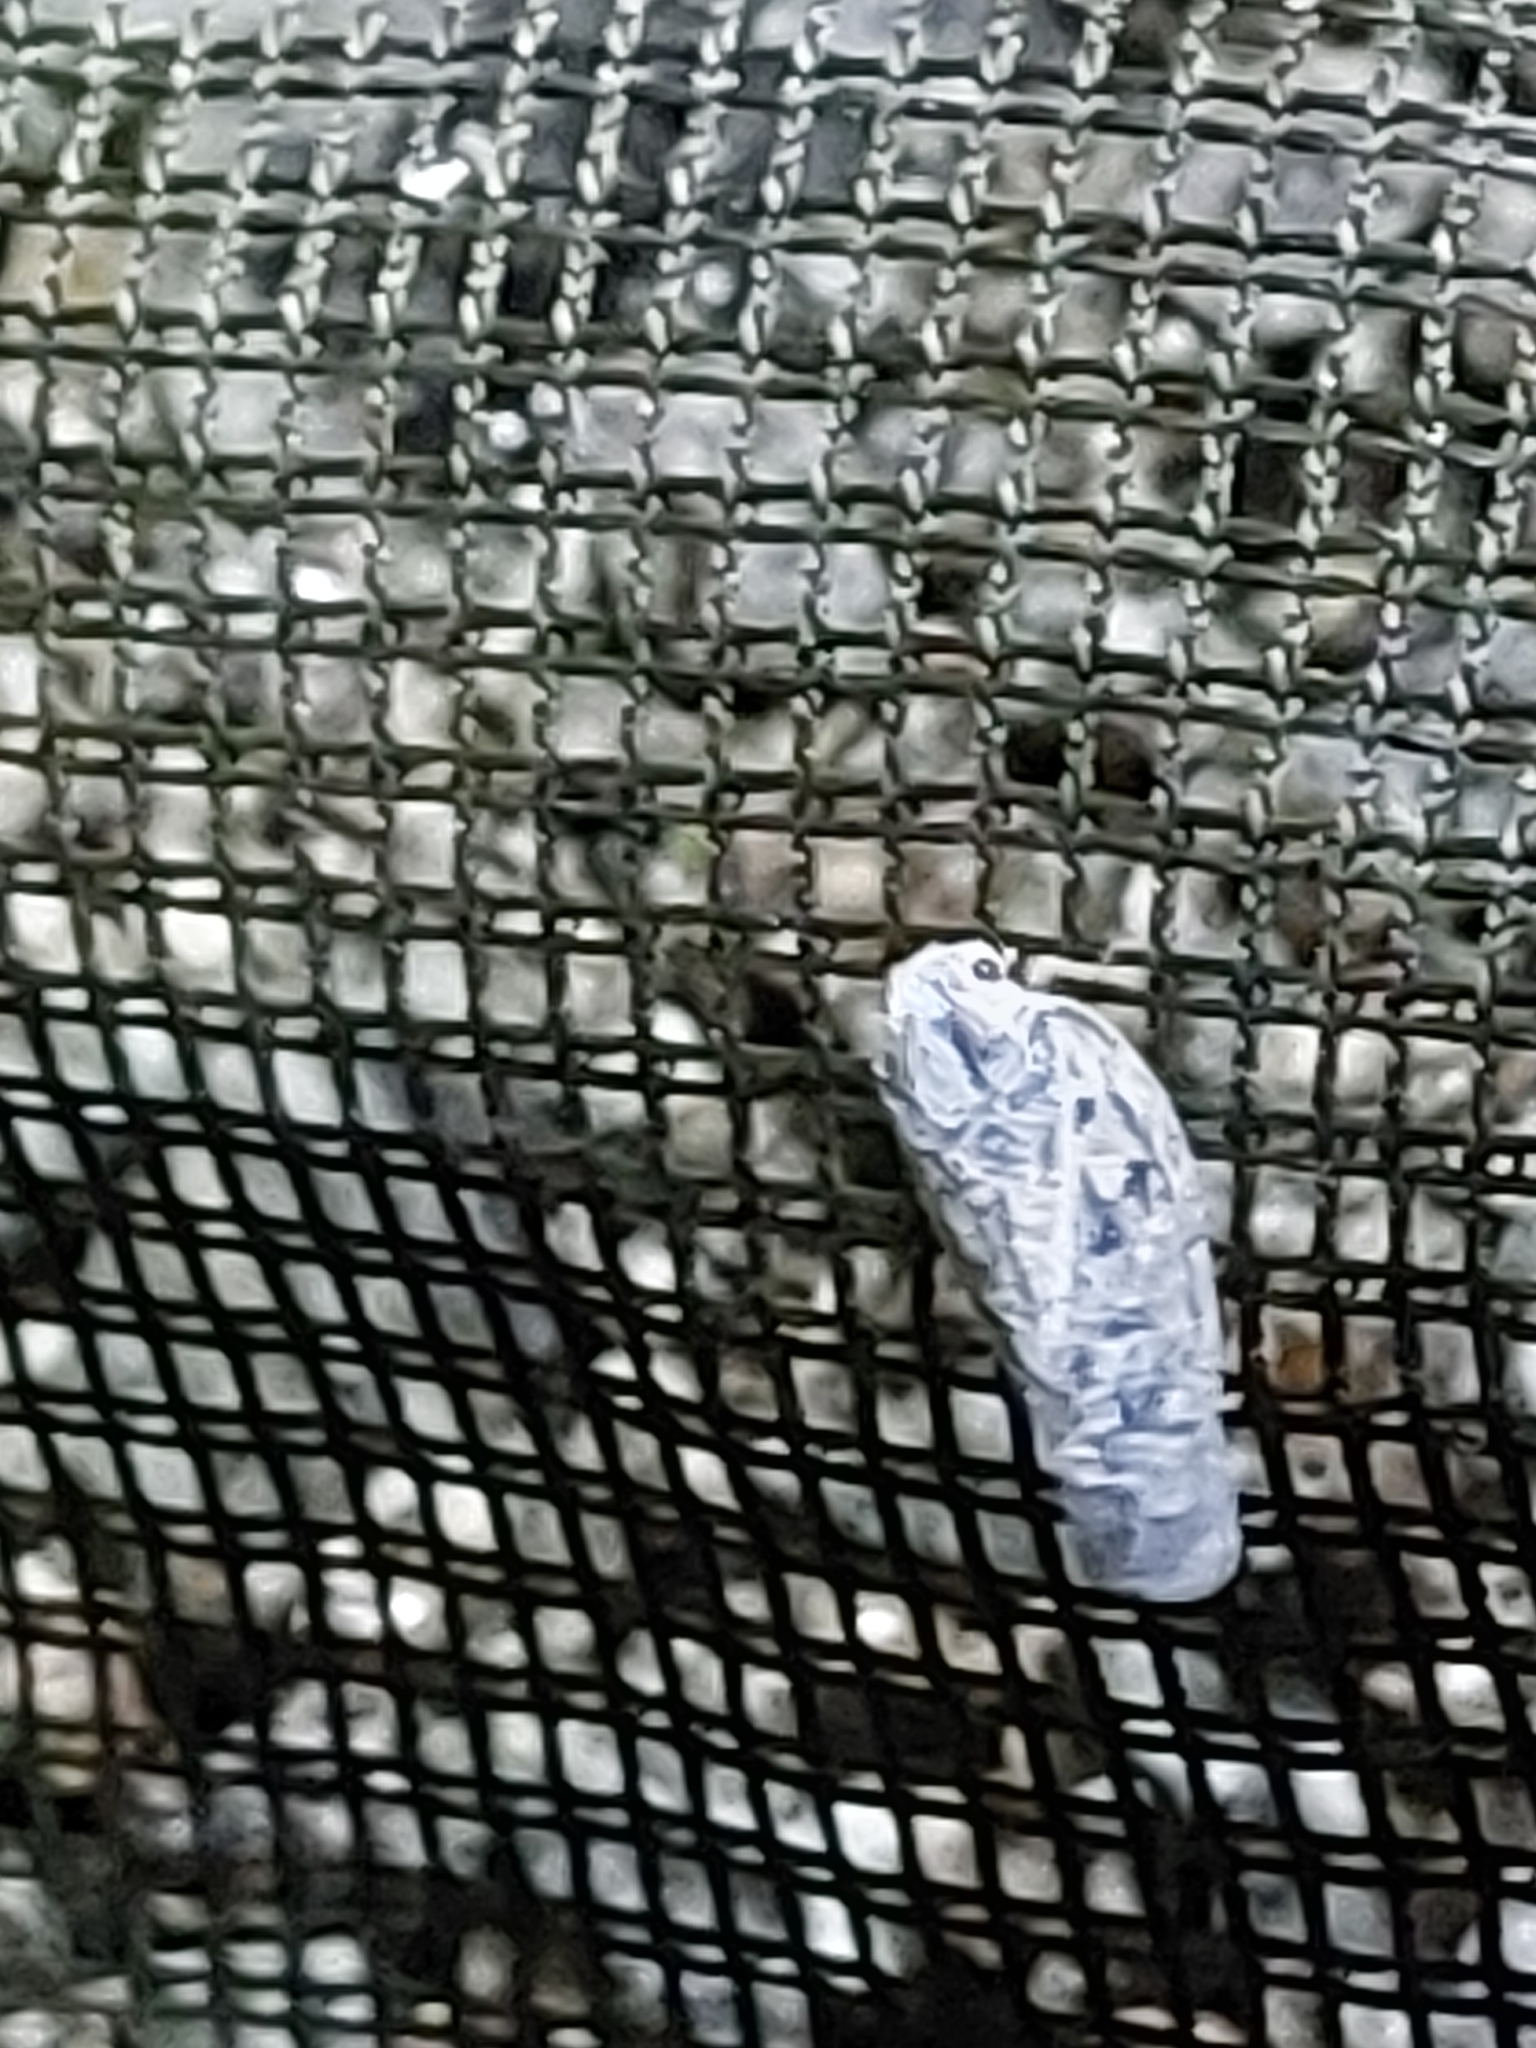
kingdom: Animalia
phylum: Arthropoda
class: Insecta
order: Hemiptera
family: Flatidae
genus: Metcalfa
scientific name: Metcalfa pruinosa
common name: Citrus flatid planthopper
